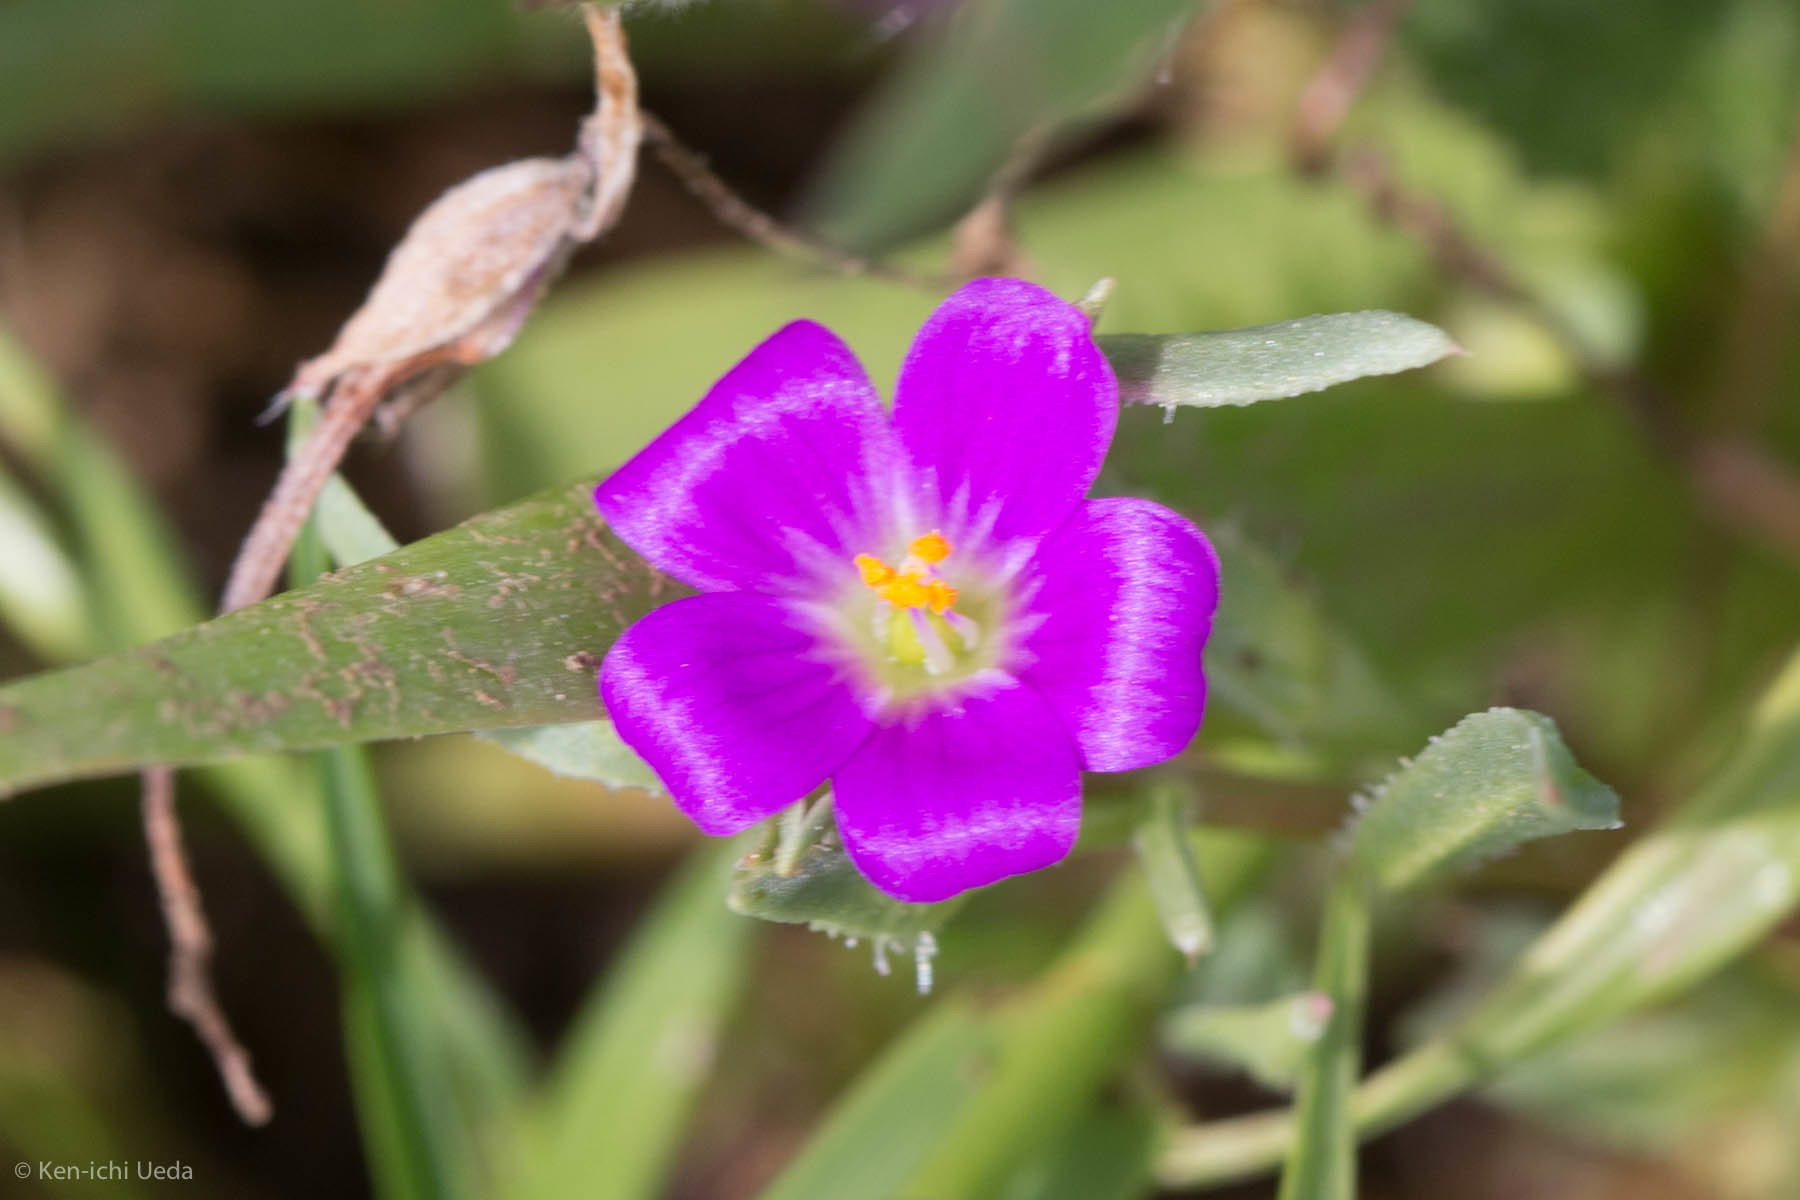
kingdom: Plantae
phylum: Tracheophyta
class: Magnoliopsida
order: Caryophyllales
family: Montiaceae
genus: Calandrinia
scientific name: Calandrinia menziesii
